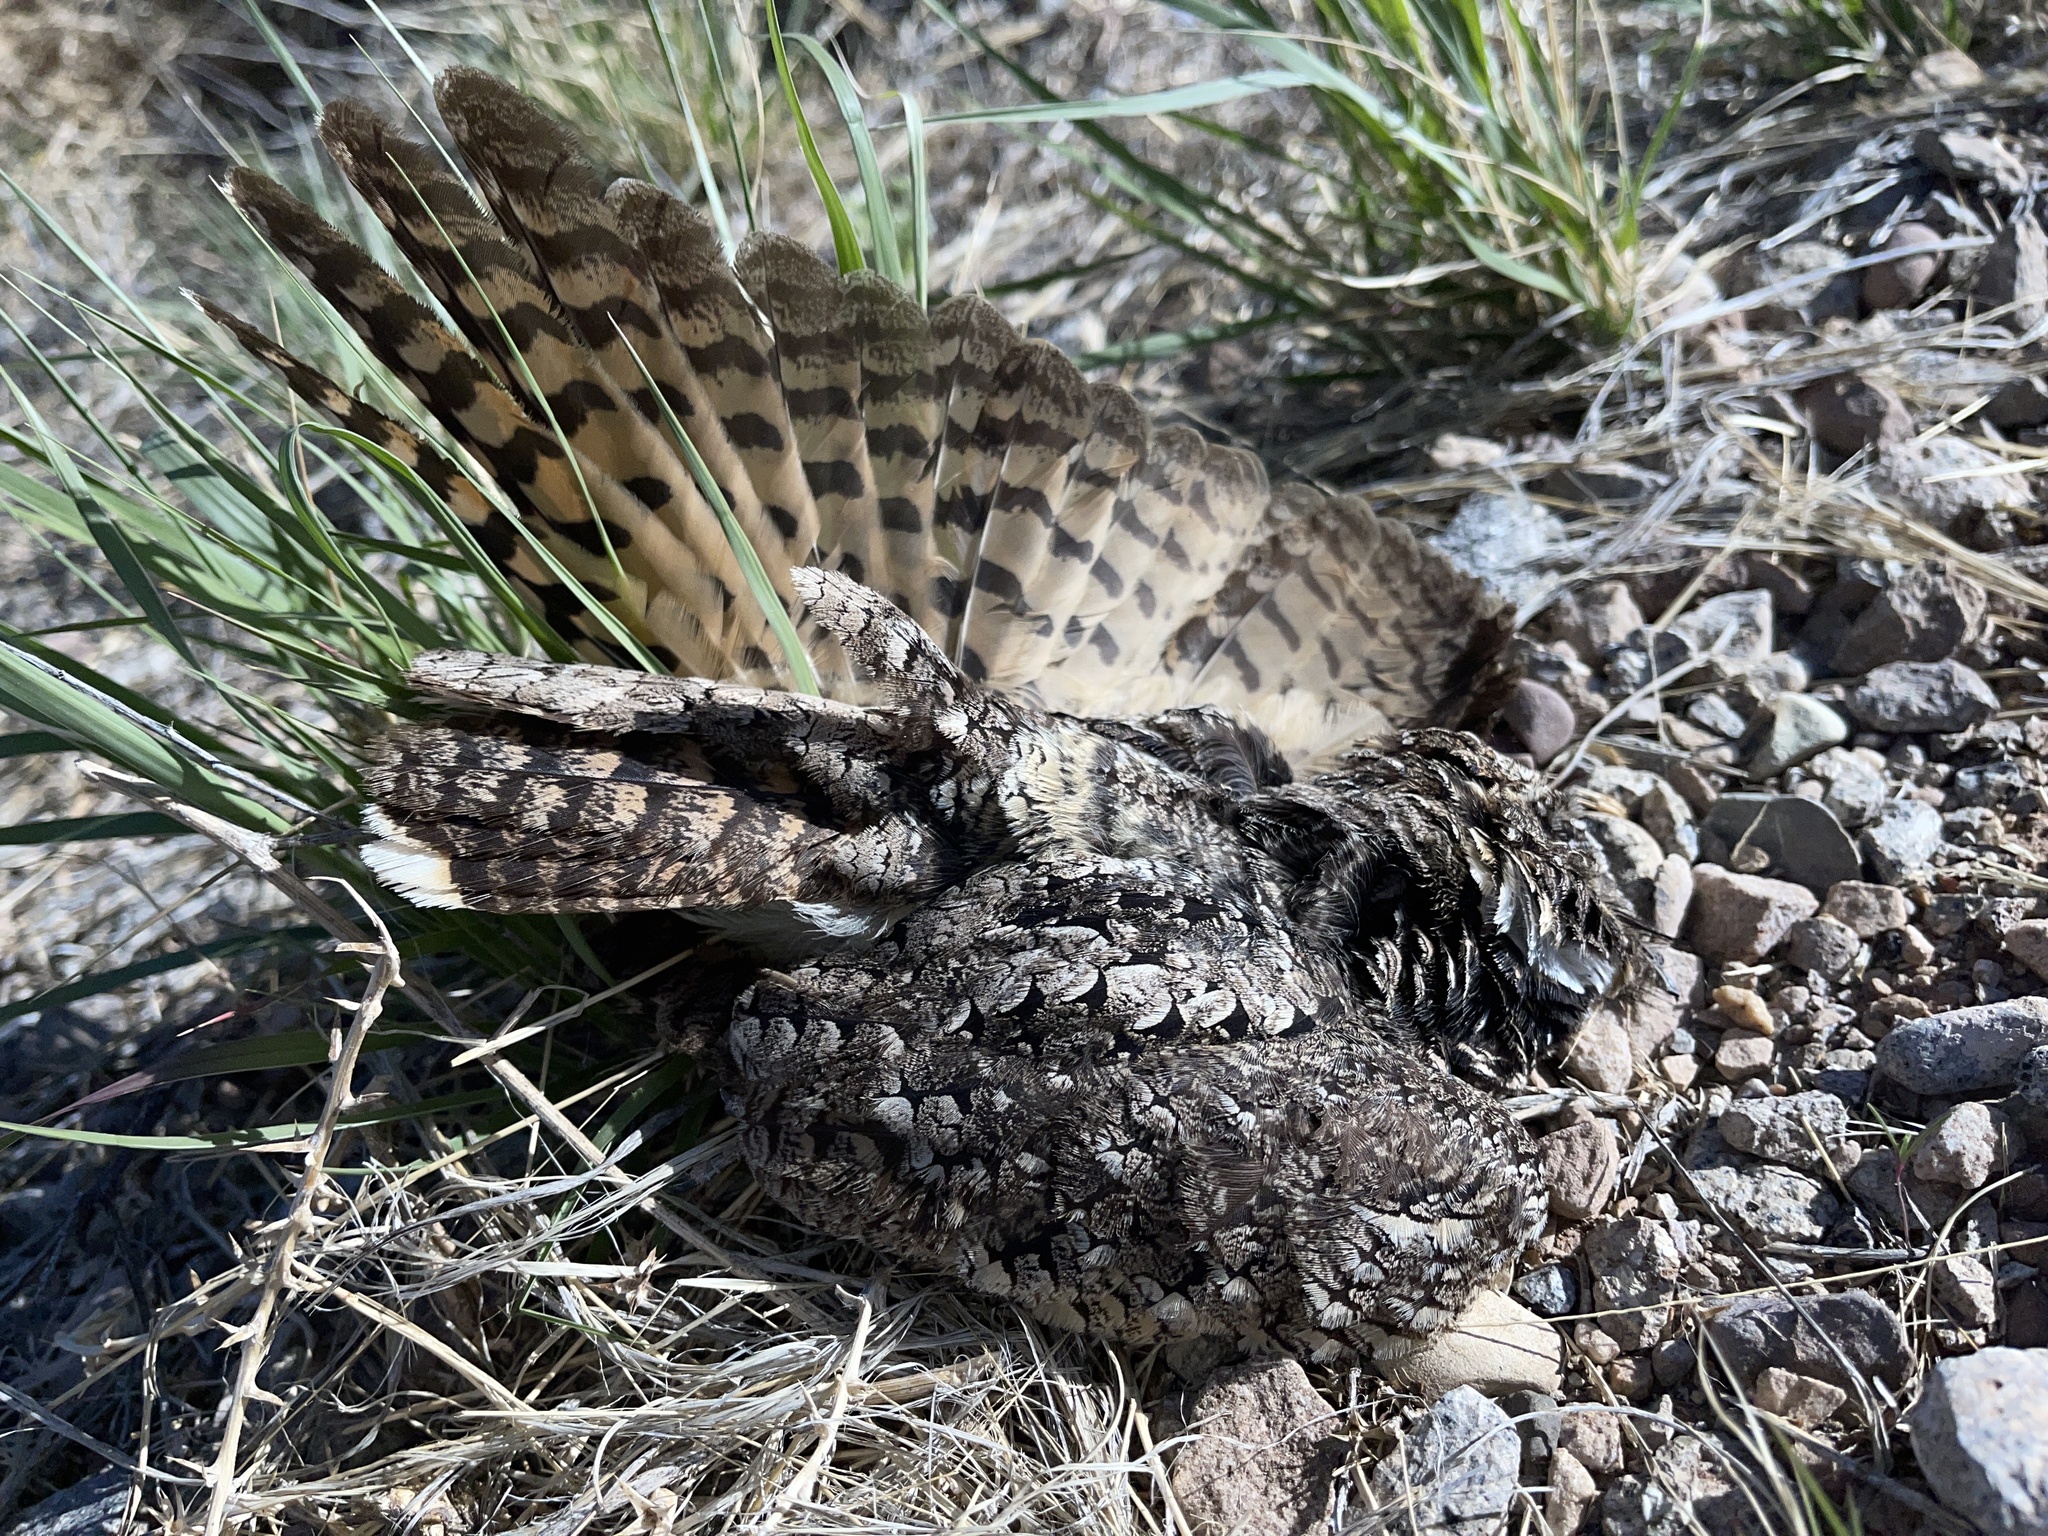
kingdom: Animalia
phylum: Chordata
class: Aves
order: Caprimulgiformes
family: Caprimulgidae
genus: Phalaenoptilus
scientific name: Phalaenoptilus nuttallii
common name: Common poorwill
